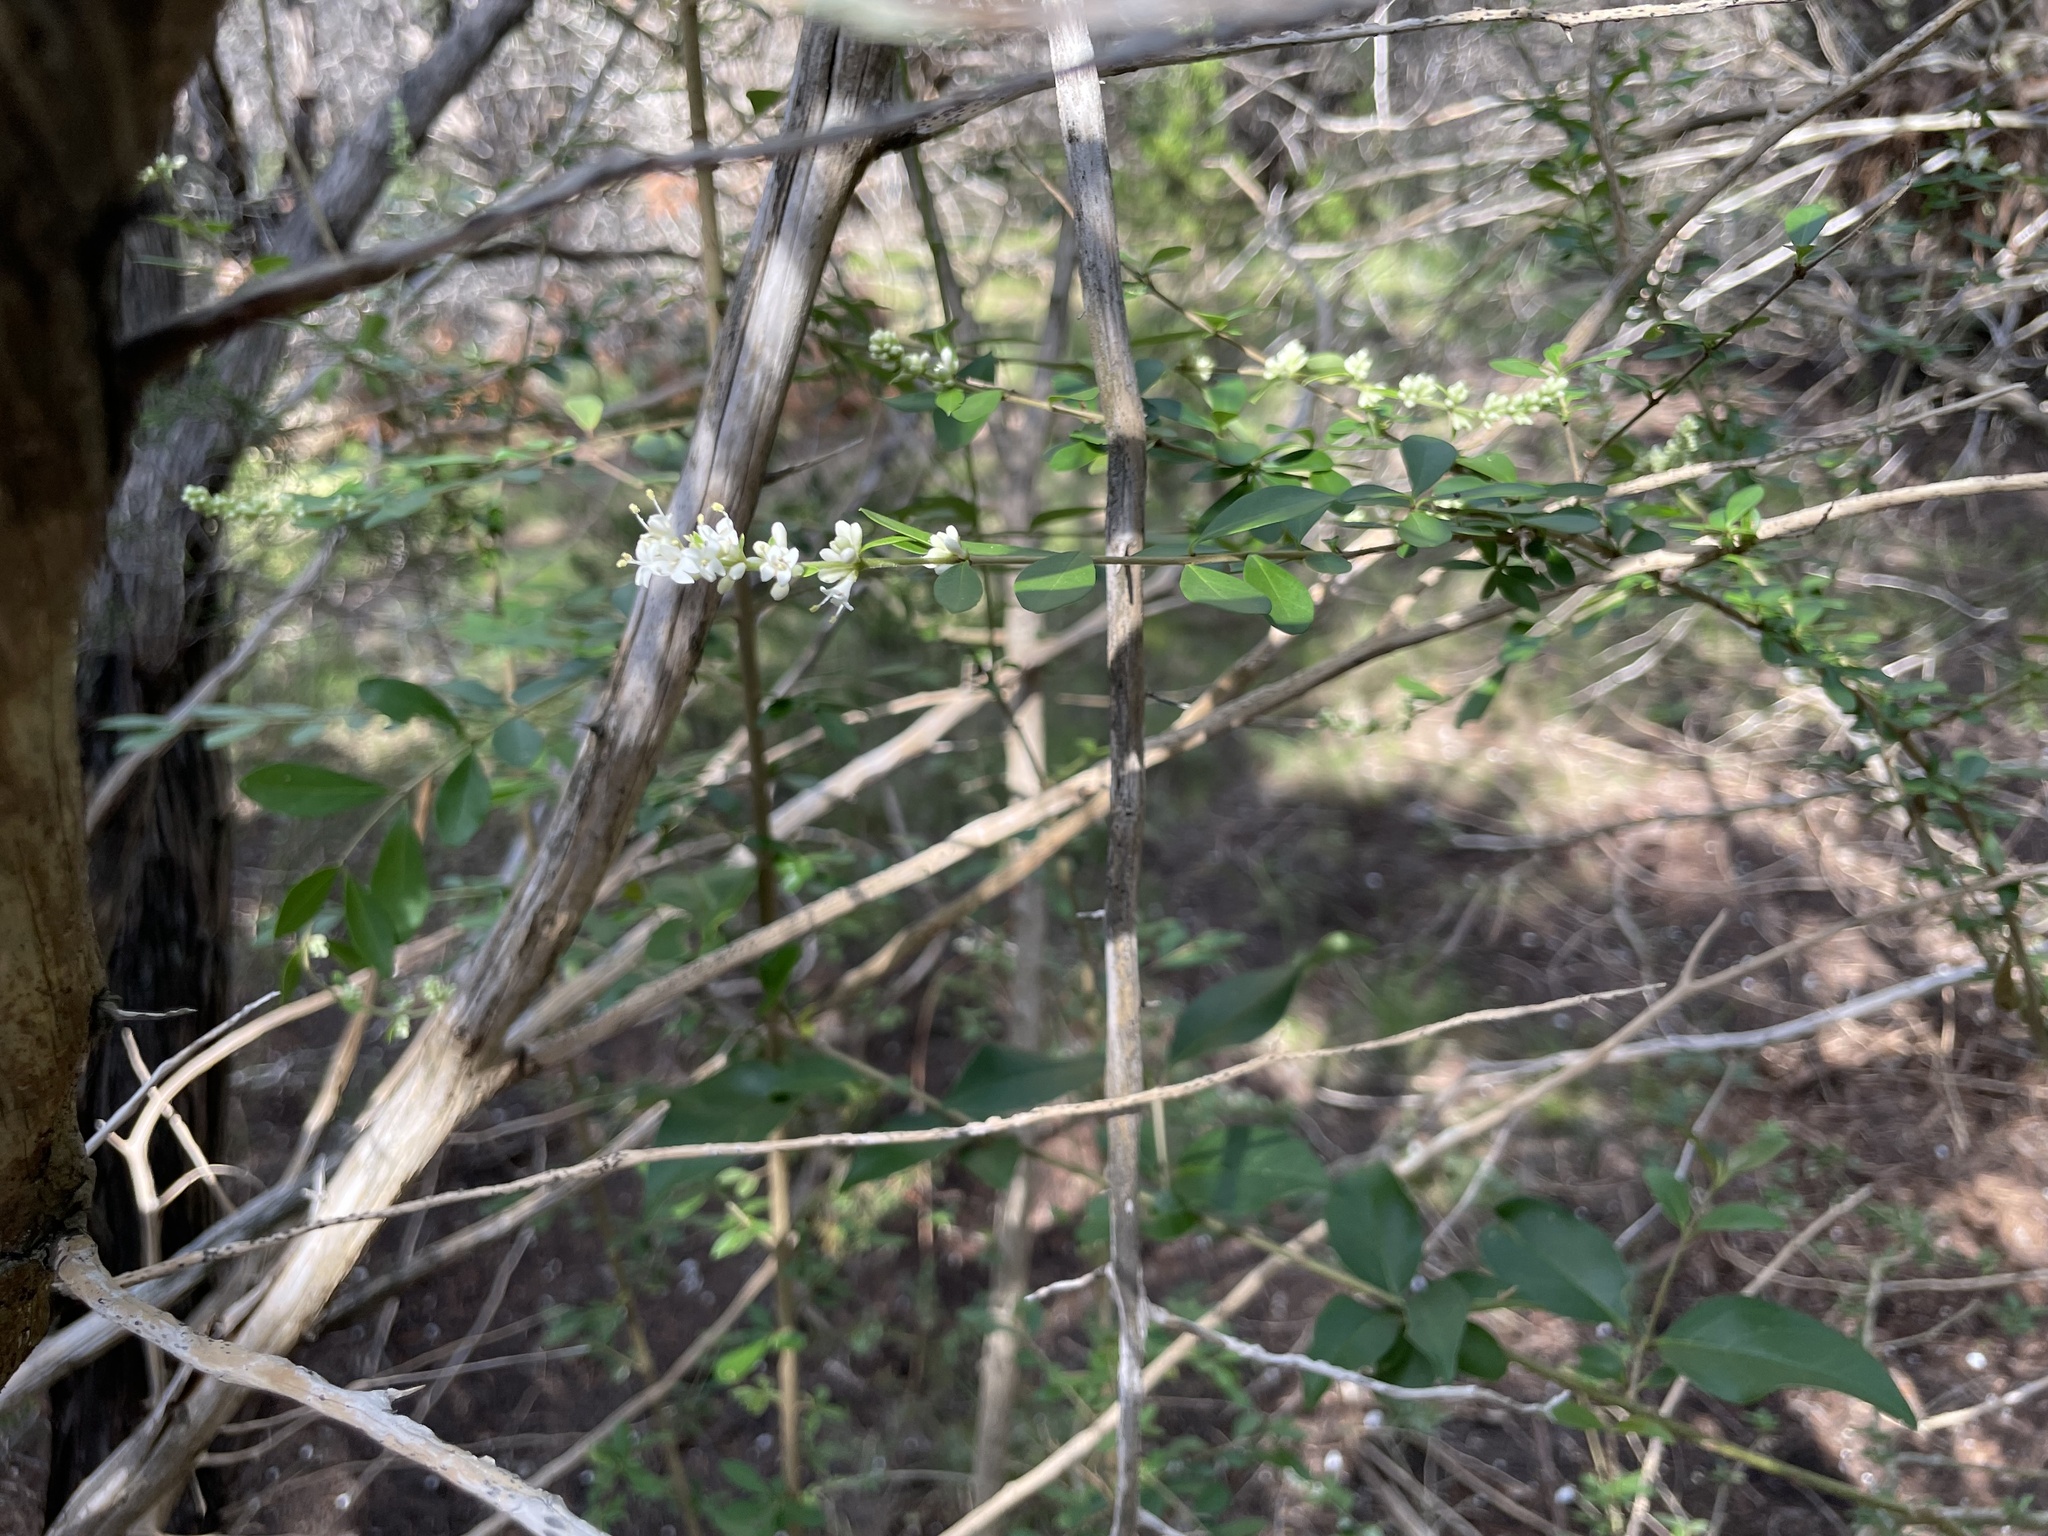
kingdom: Plantae
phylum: Tracheophyta
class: Magnoliopsida
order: Lamiales
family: Oleaceae
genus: Ligustrum
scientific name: Ligustrum quihoui
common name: Waxyleaf privet
